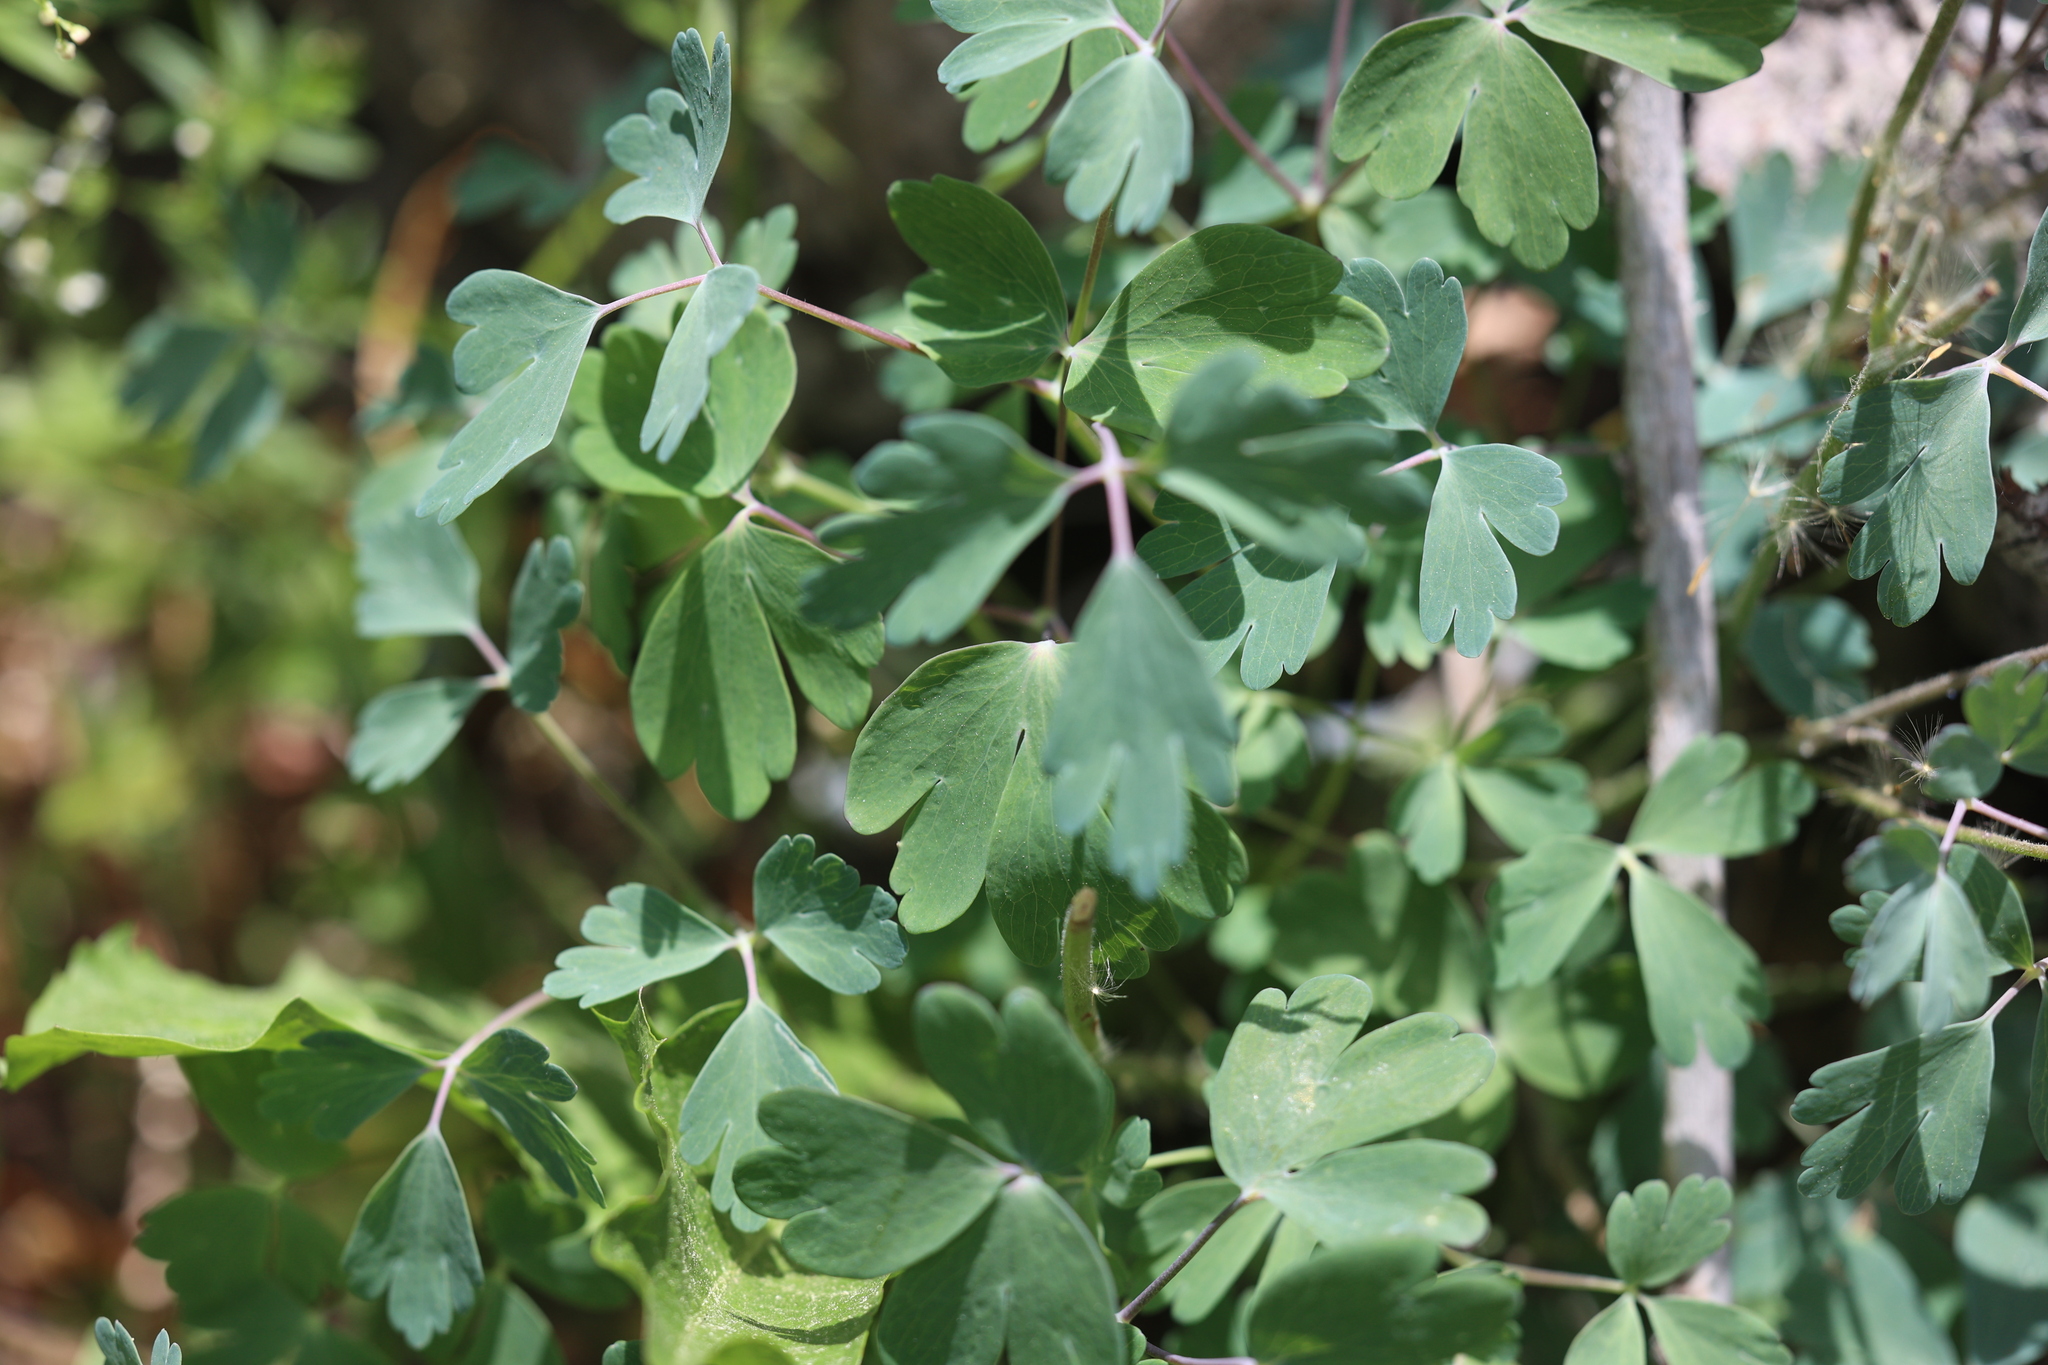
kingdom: Plantae
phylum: Tracheophyta
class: Magnoliopsida
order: Ranunculales
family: Ranunculaceae
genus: Aquilegia
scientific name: Aquilegia coerulea
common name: Rocky mountain columbine
